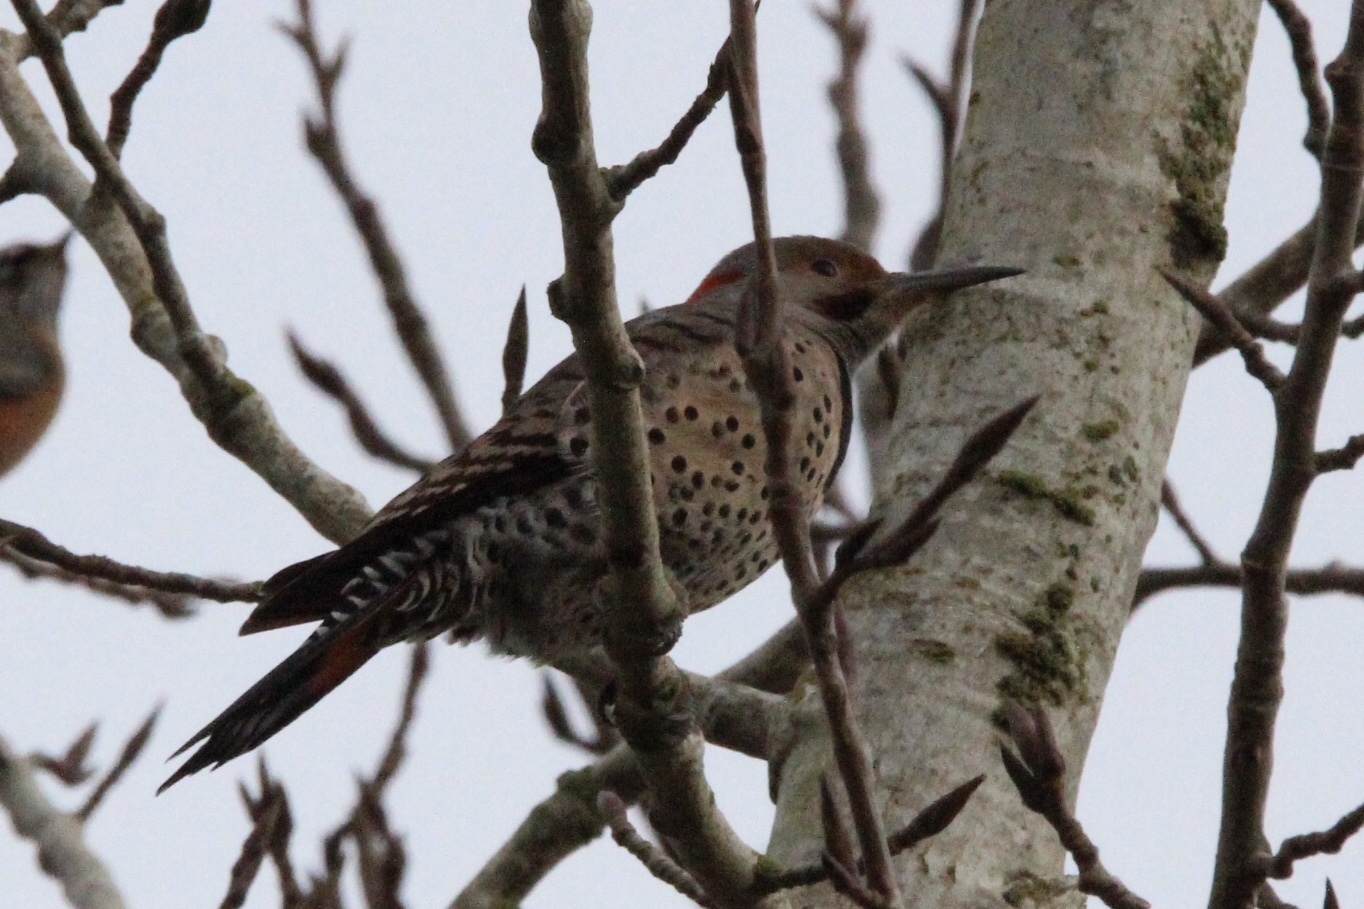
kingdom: Animalia
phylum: Chordata
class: Aves
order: Piciformes
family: Picidae
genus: Colaptes
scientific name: Colaptes
